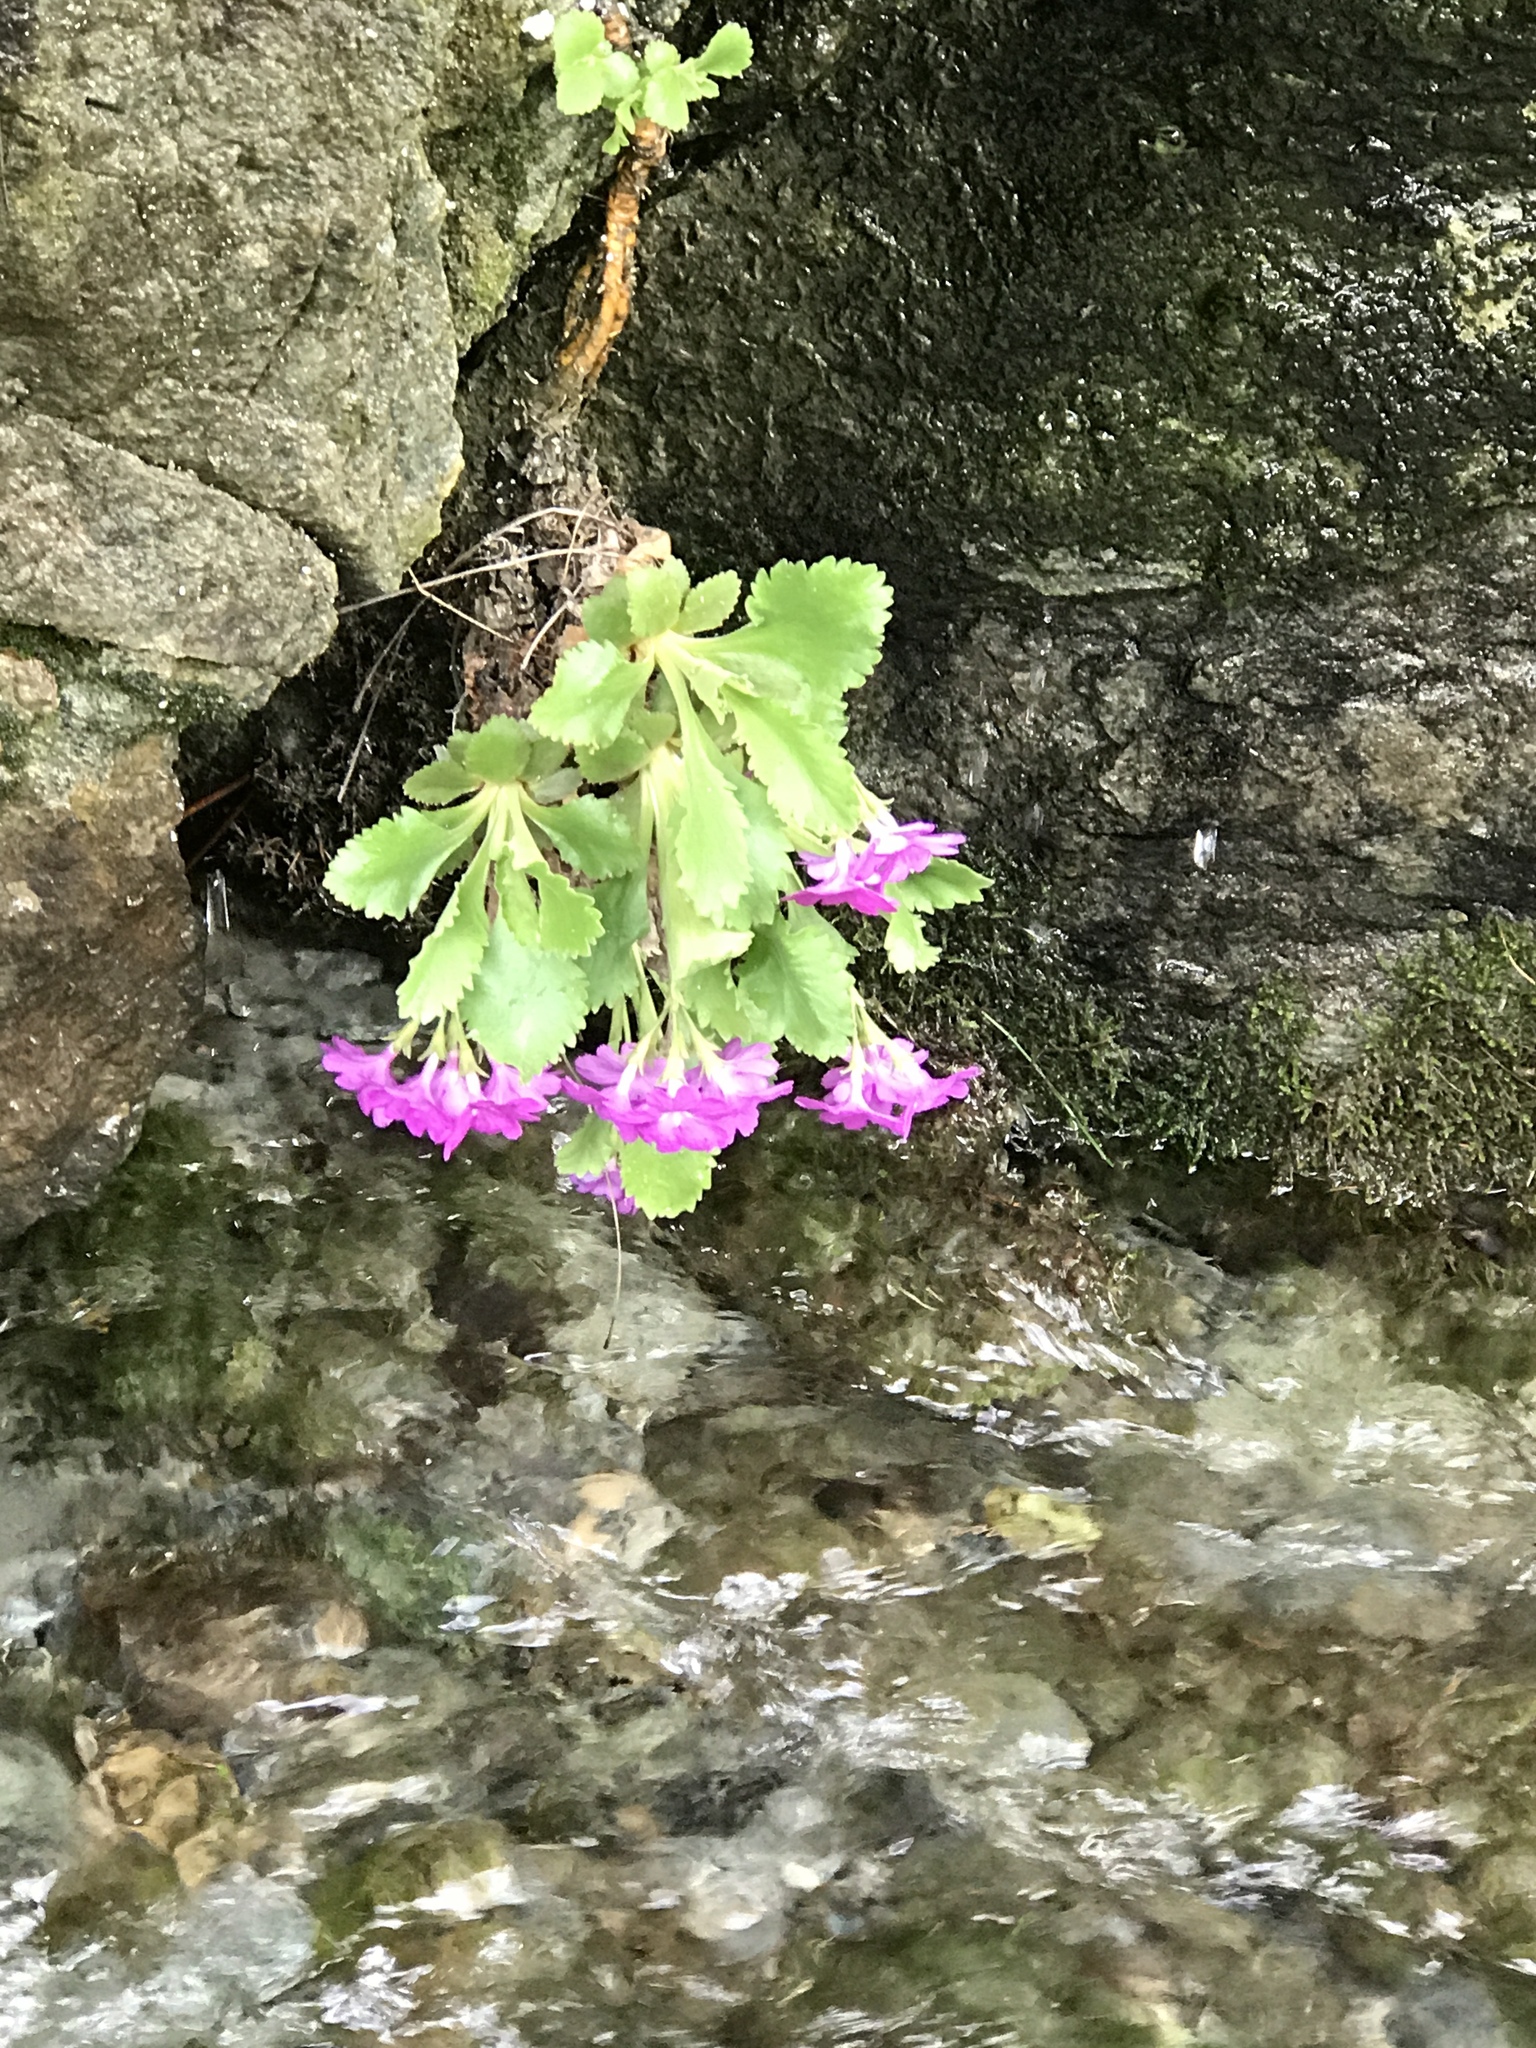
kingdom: Plantae
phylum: Tracheophyta
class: Magnoliopsida
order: Ericales
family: Primulaceae
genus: Primula
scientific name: Primula hirsuta
